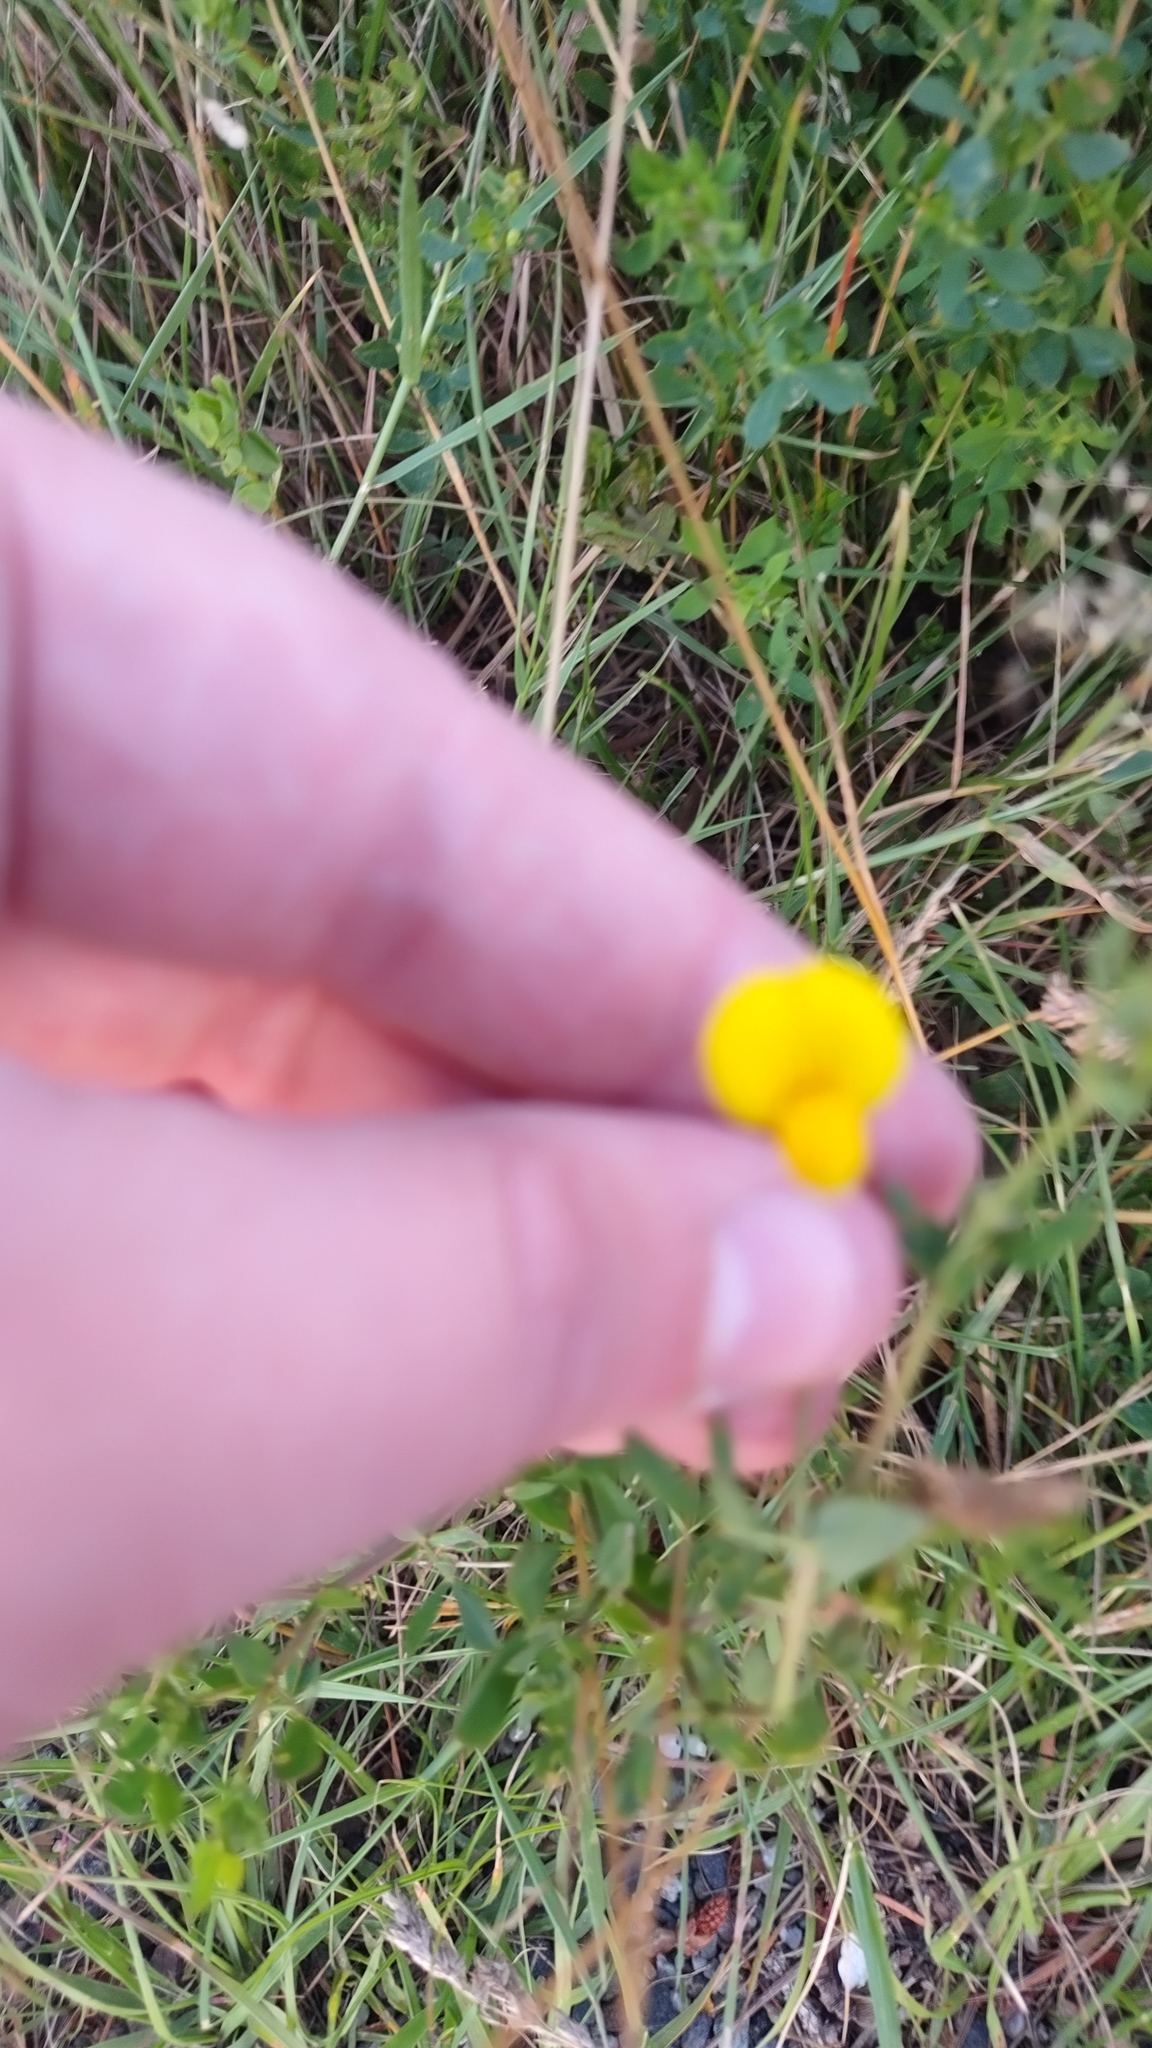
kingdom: Plantae
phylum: Tracheophyta
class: Magnoliopsida
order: Fabales
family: Fabaceae
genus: Lotus
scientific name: Lotus corniculatus
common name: Common bird's-foot-trefoil
